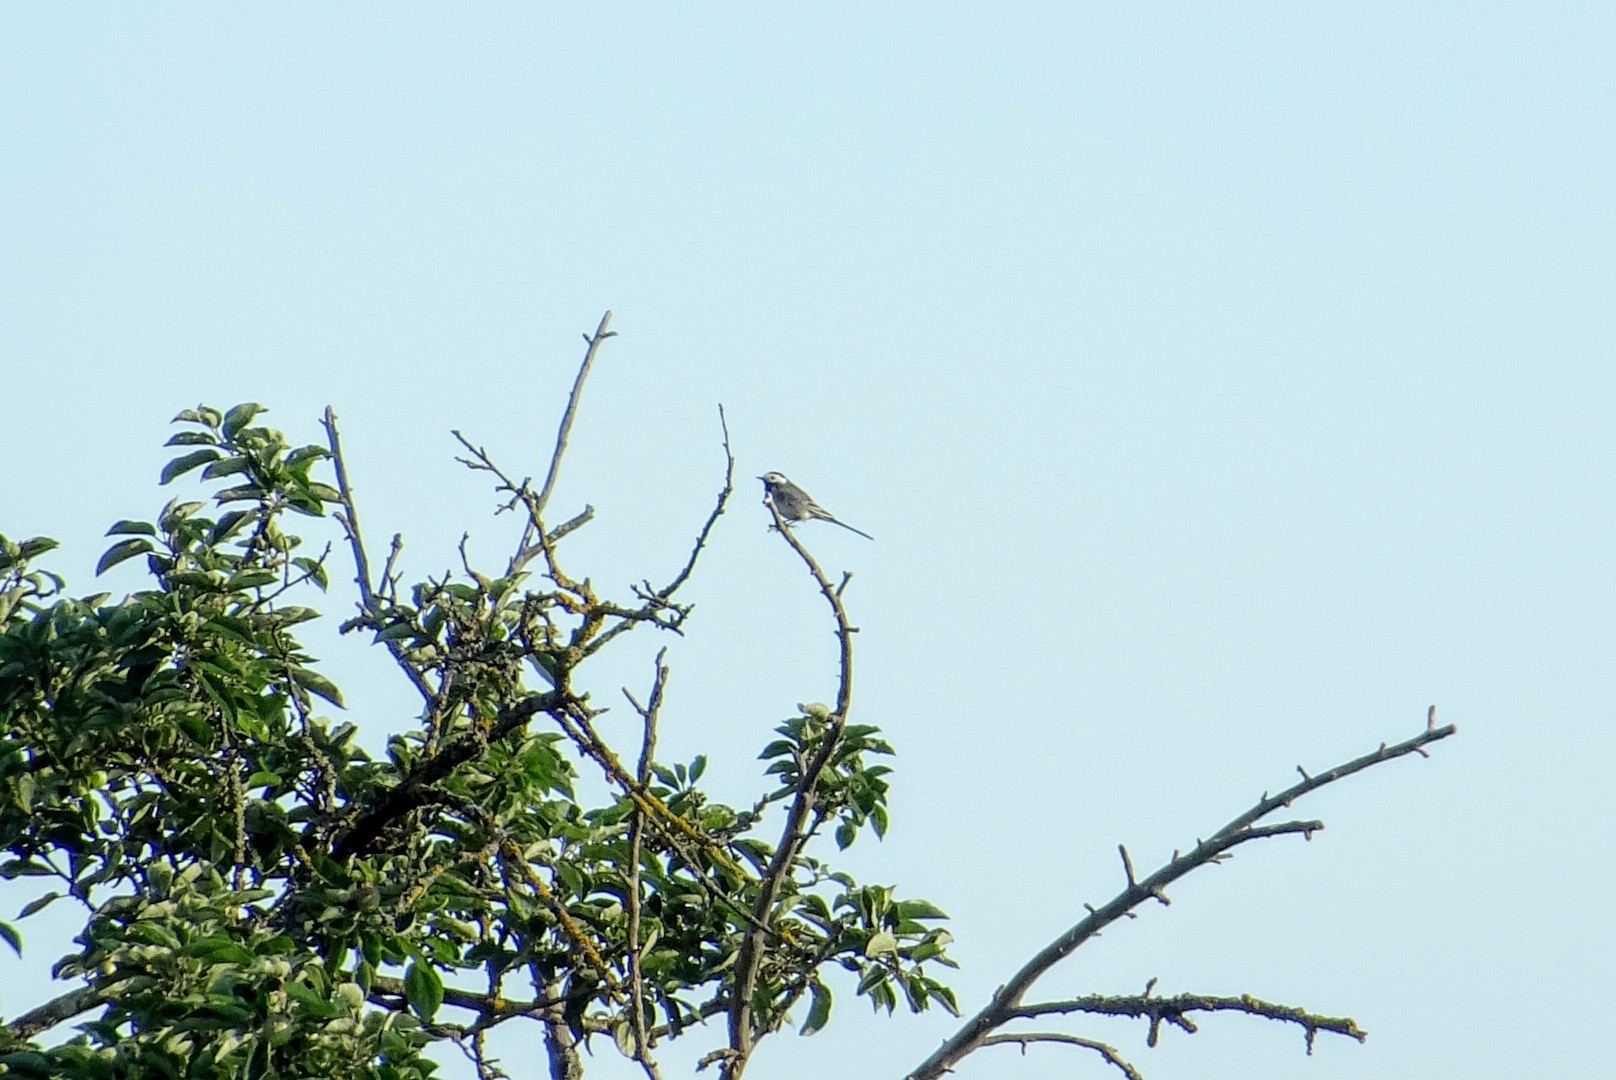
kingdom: Animalia
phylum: Chordata
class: Aves
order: Passeriformes
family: Motacillidae
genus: Motacilla
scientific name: Motacilla alba
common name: White wagtail
